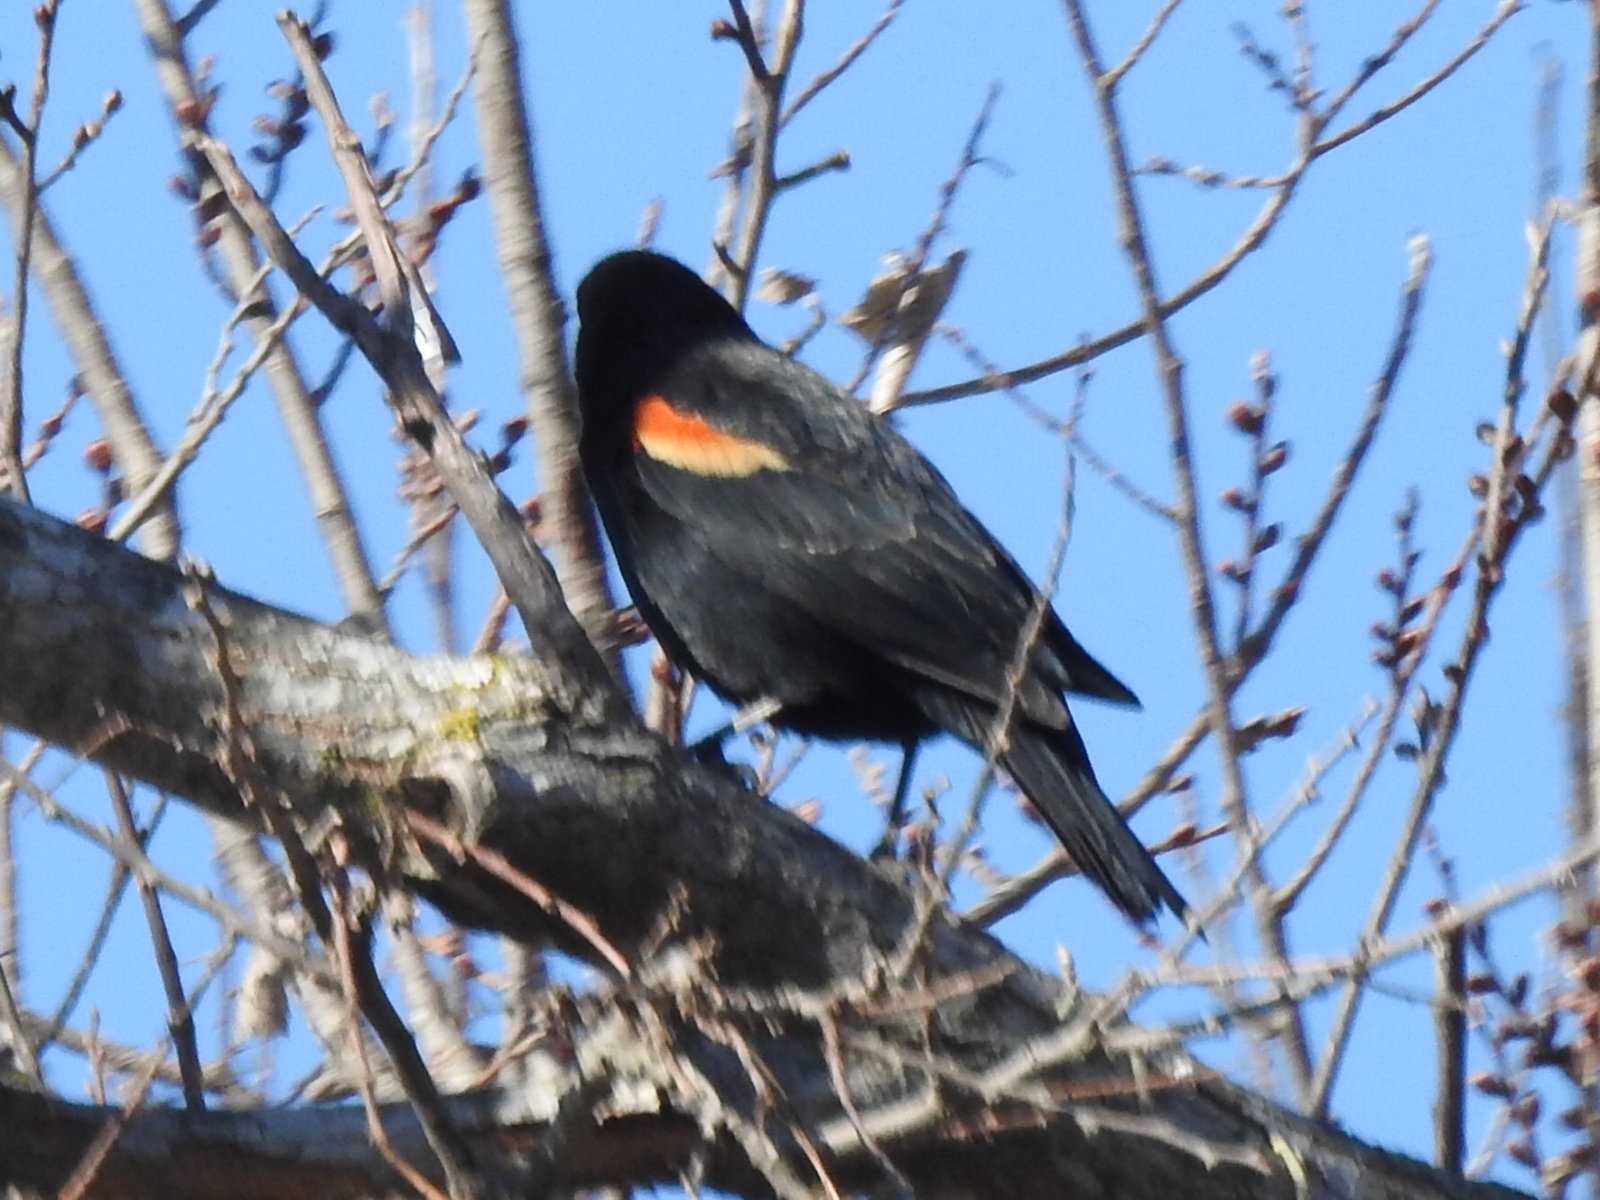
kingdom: Animalia
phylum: Chordata
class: Aves
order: Passeriformes
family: Icteridae
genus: Agelaius
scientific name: Agelaius phoeniceus
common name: Red-winged blackbird
